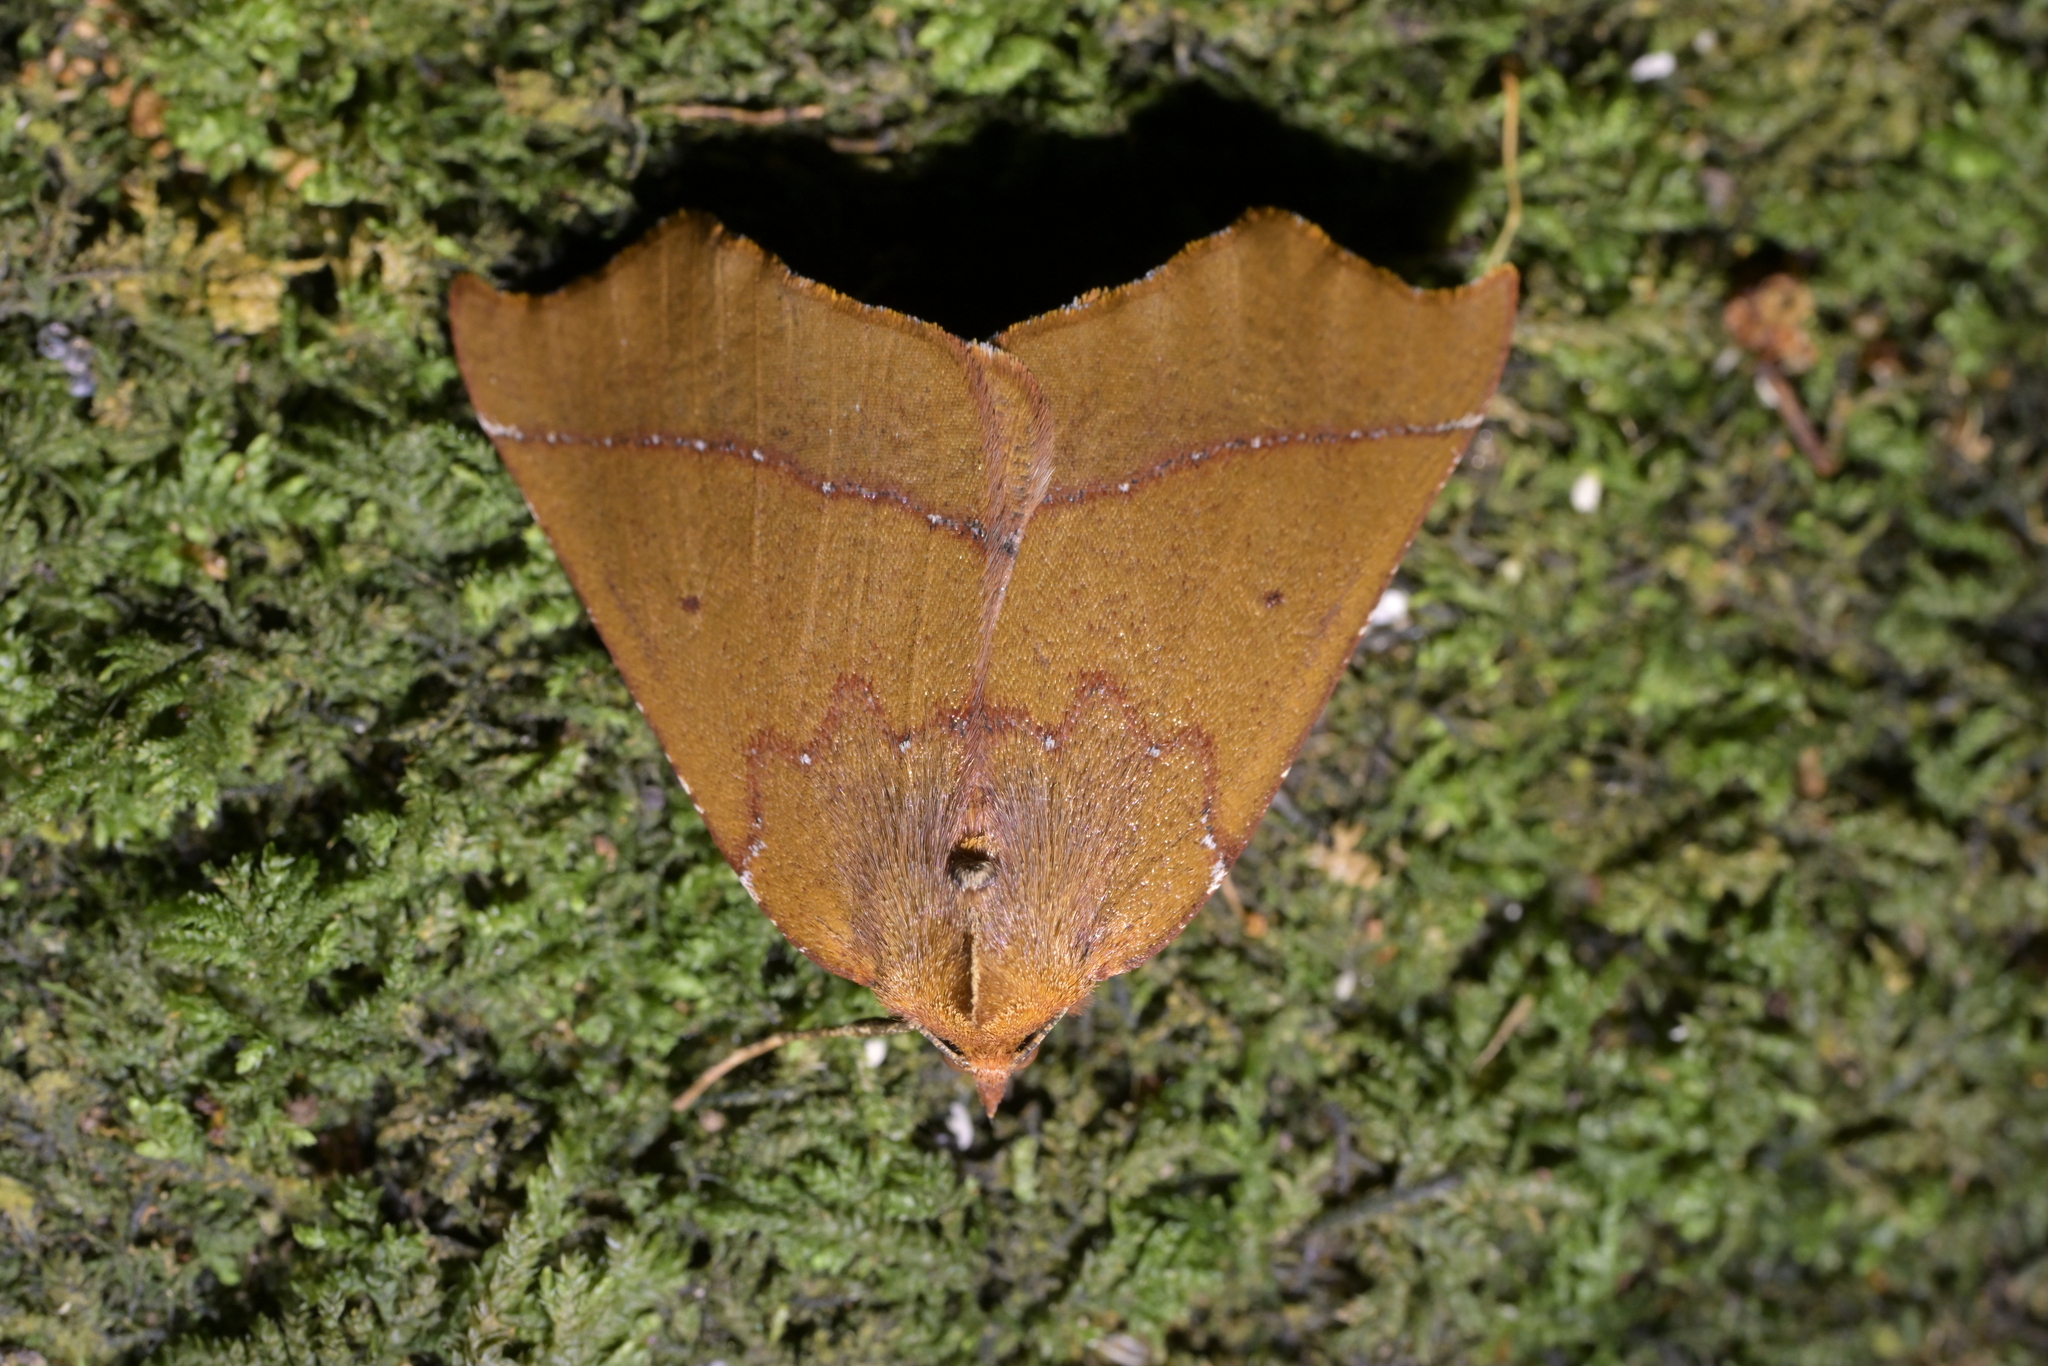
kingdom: Animalia
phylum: Arthropoda
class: Insecta
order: Lepidoptera
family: Geometridae
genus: Ischalis
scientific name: Ischalis nelsonaria
